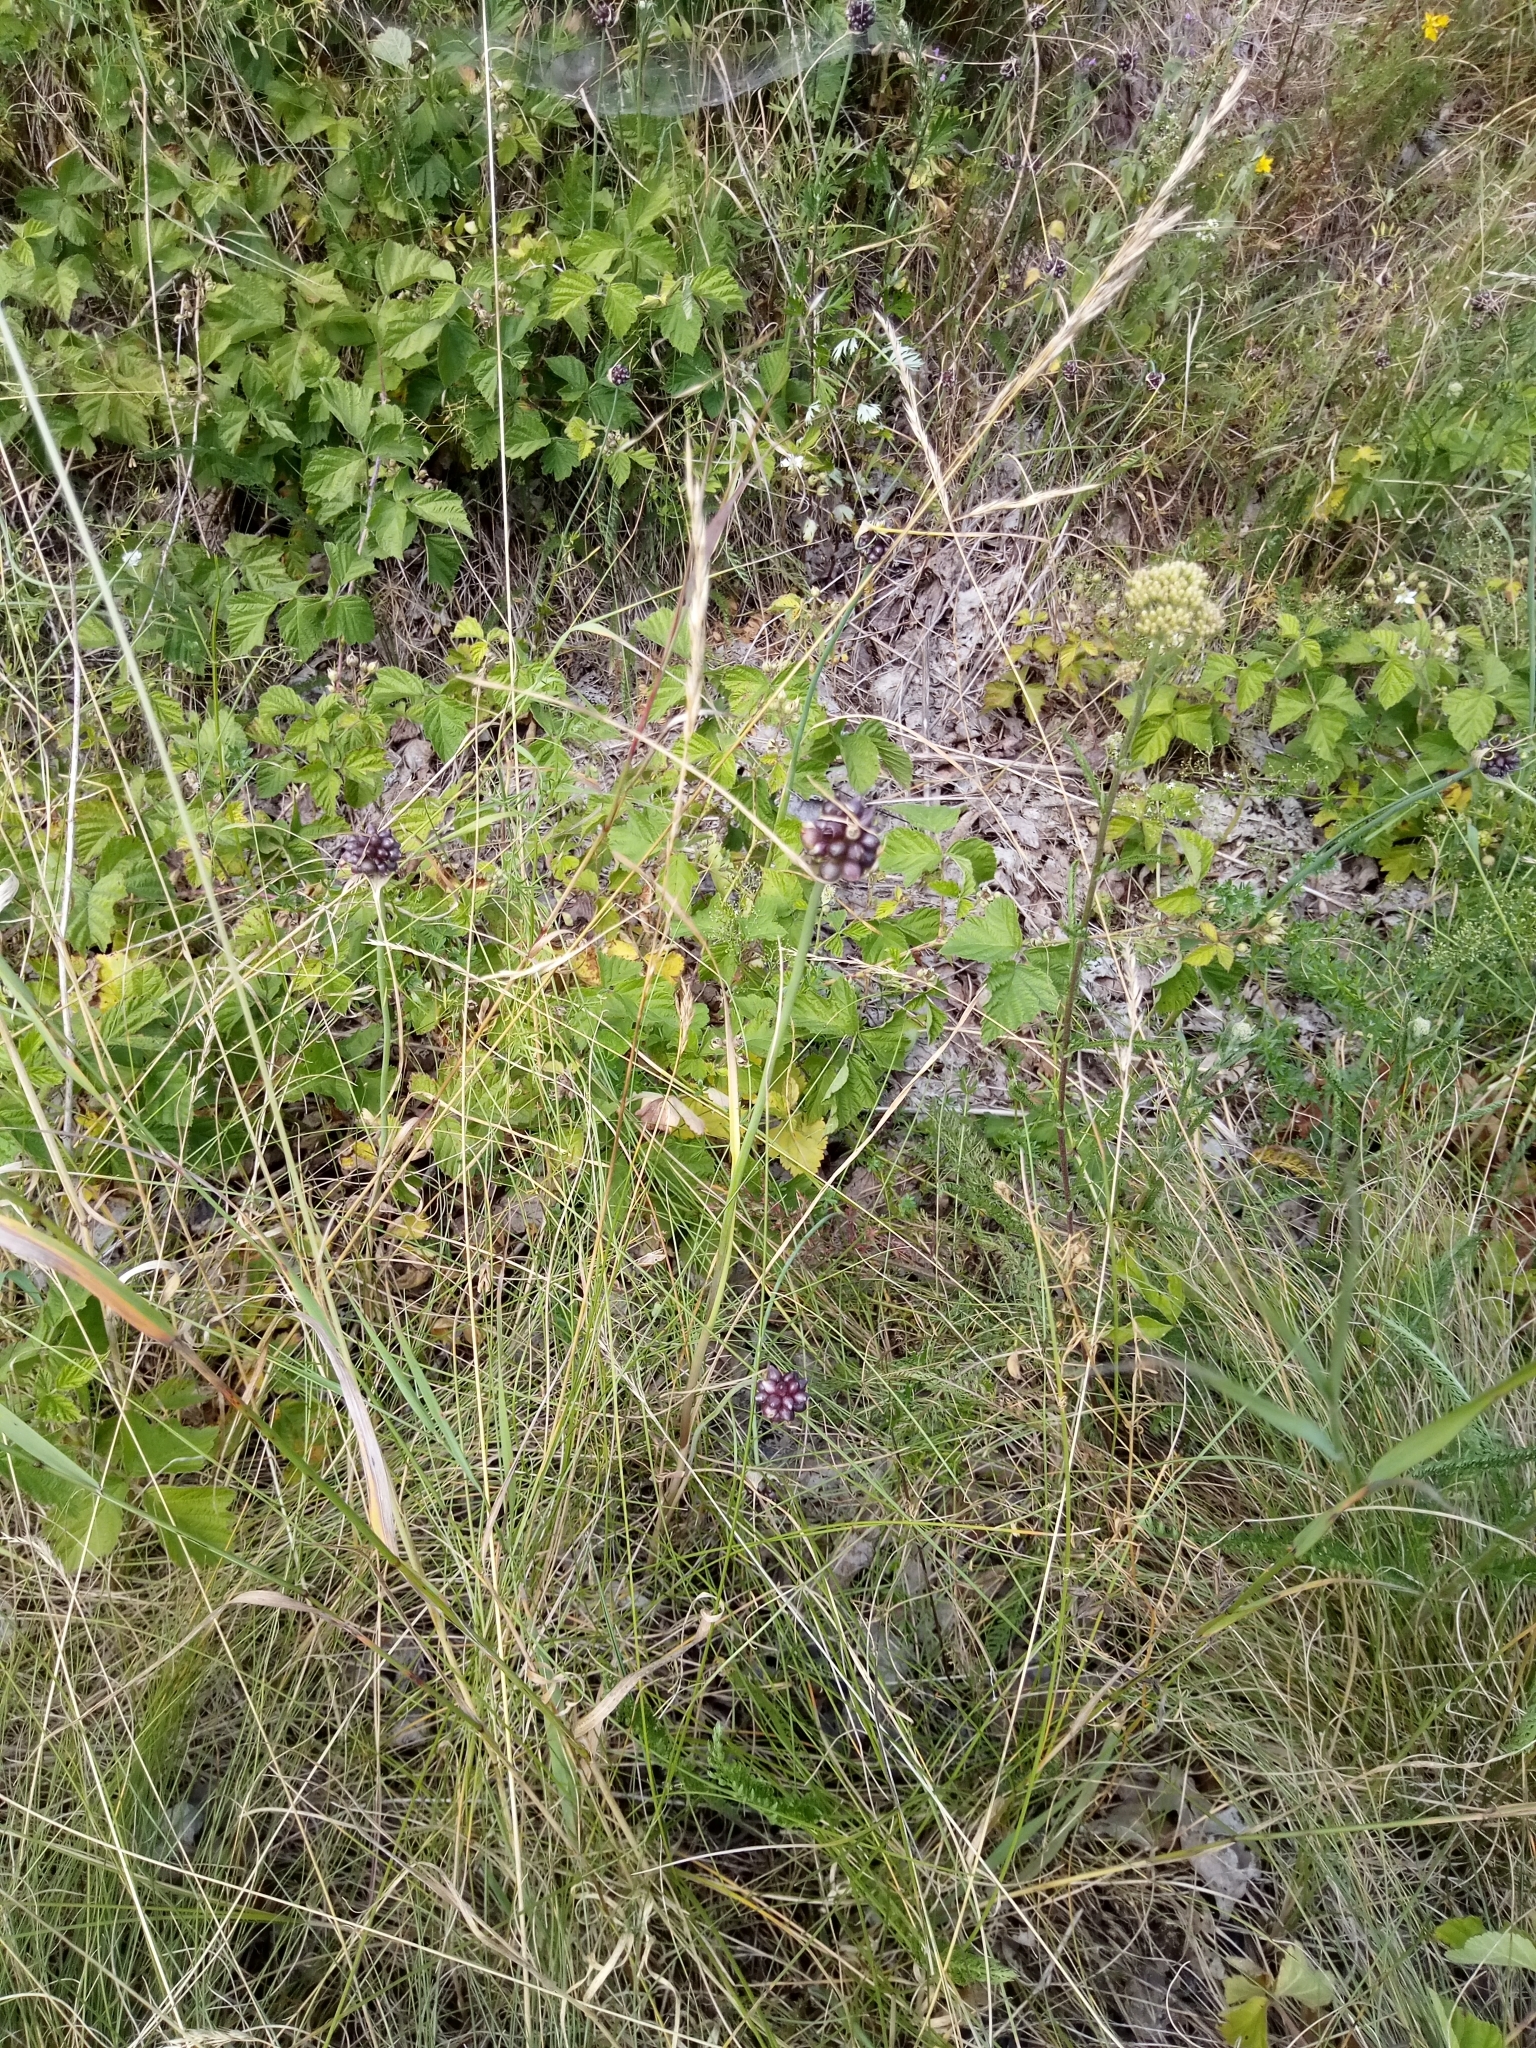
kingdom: Plantae
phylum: Tracheophyta
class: Liliopsida
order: Asparagales
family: Amaryllidaceae
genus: Allium
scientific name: Allium oleraceum
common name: Field garlic
